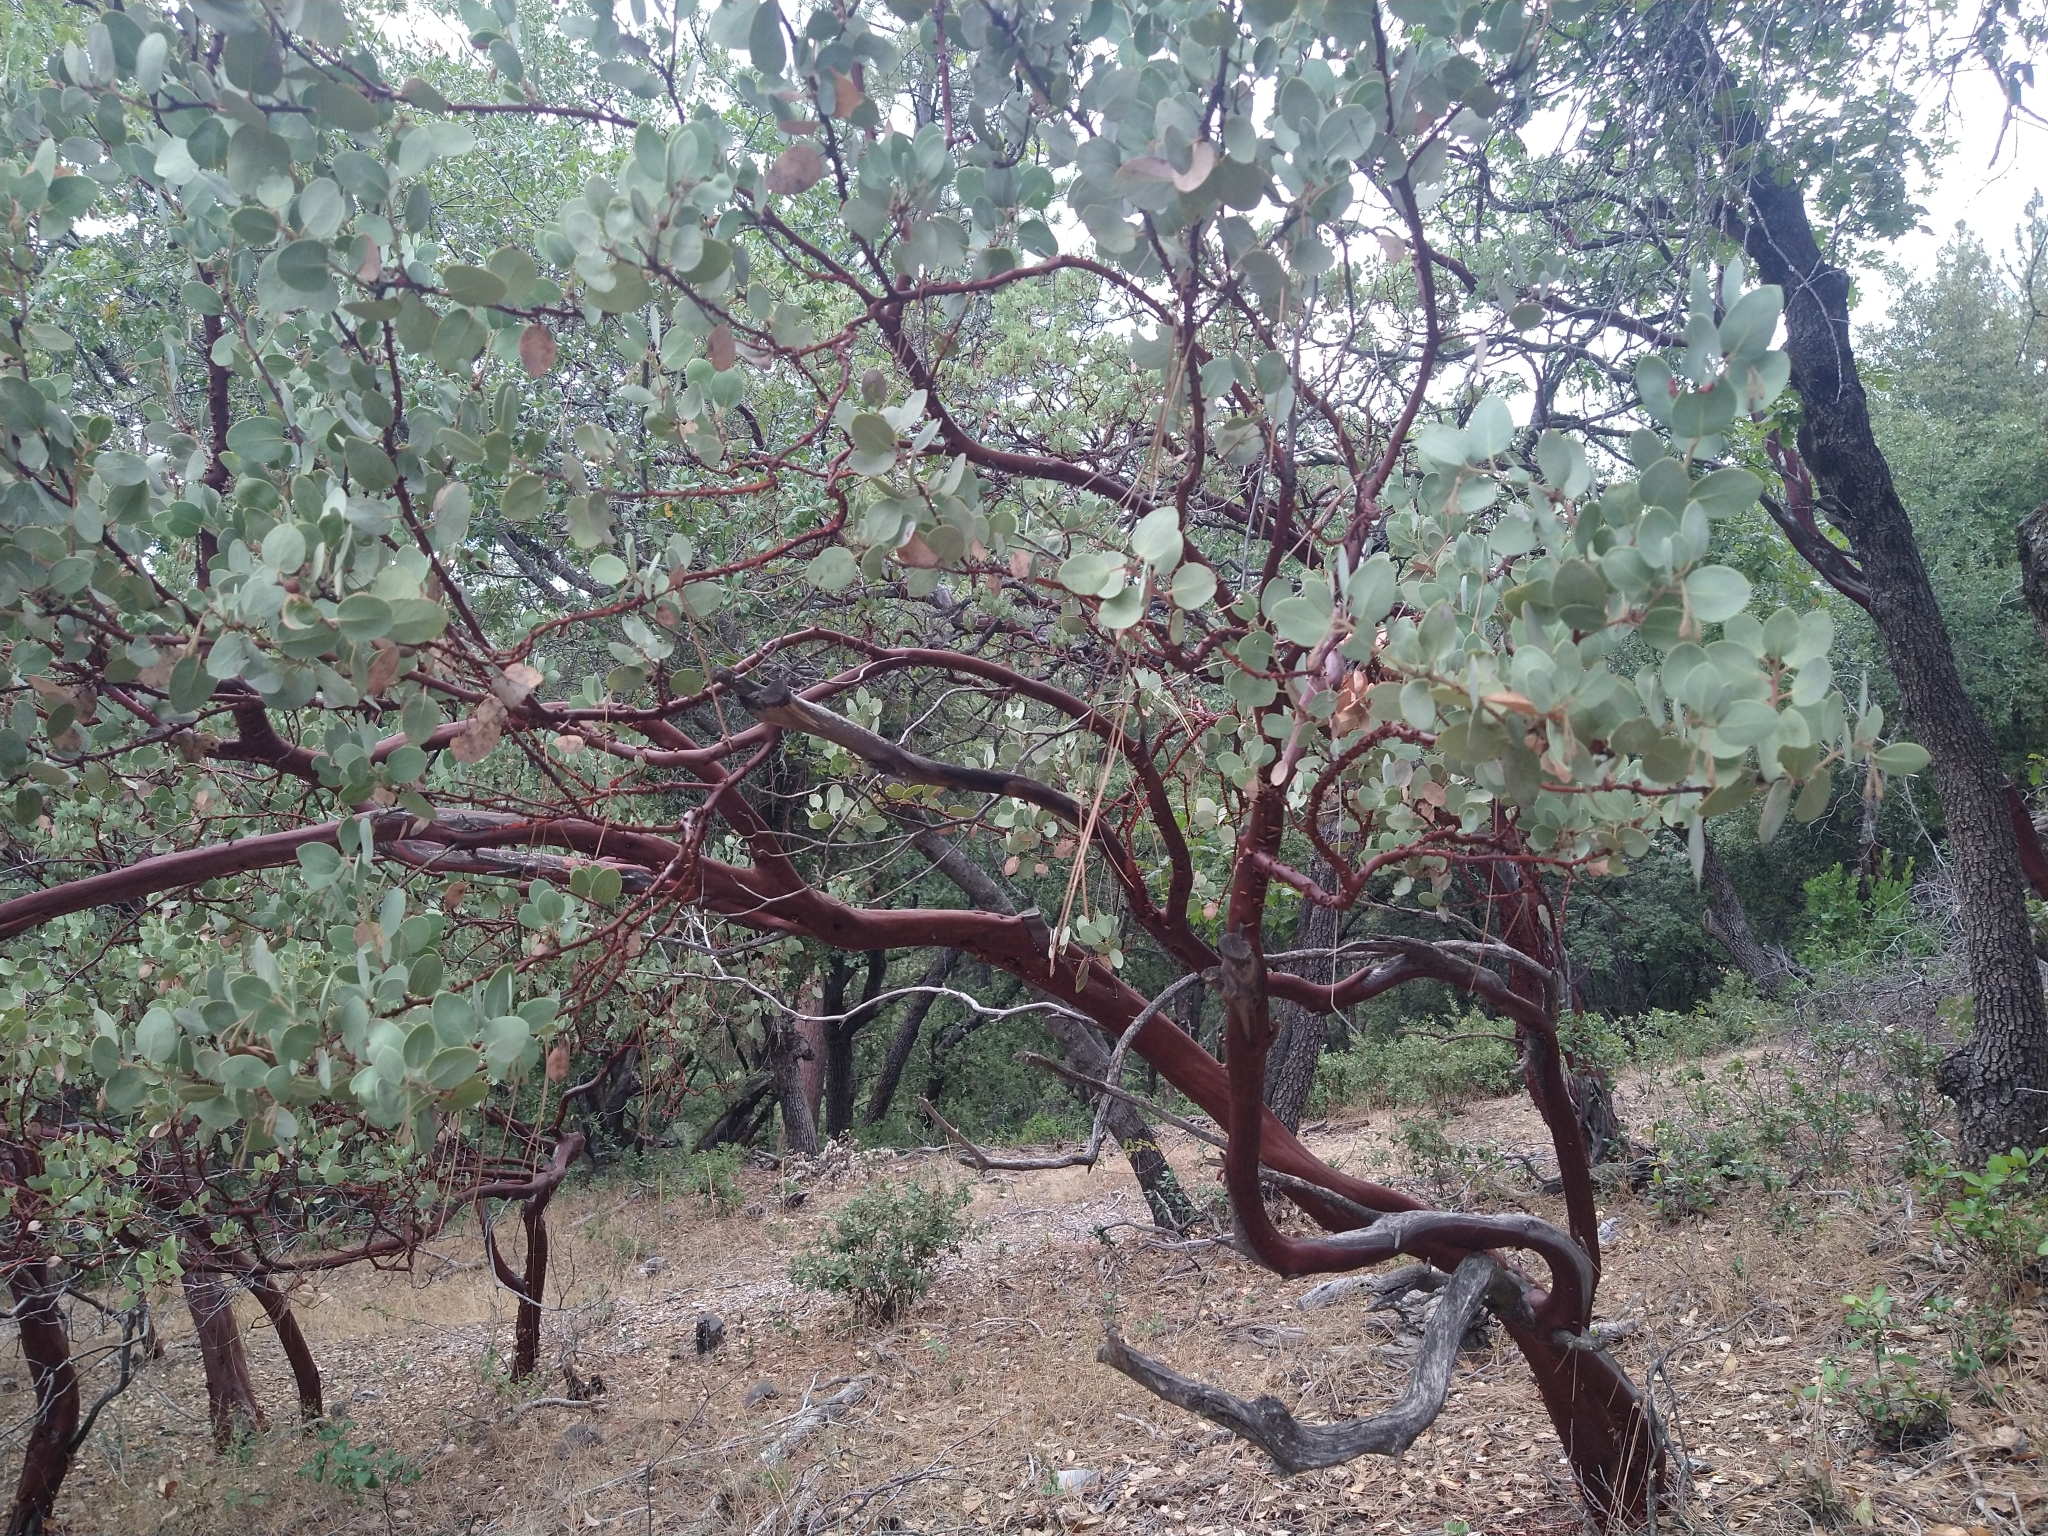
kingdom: Plantae
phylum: Tracheophyta
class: Magnoliopsida
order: Ericales
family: Ericaceae
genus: Arctostaphylos
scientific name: Arctostaphylos viscida
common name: White-leaf manzanita
